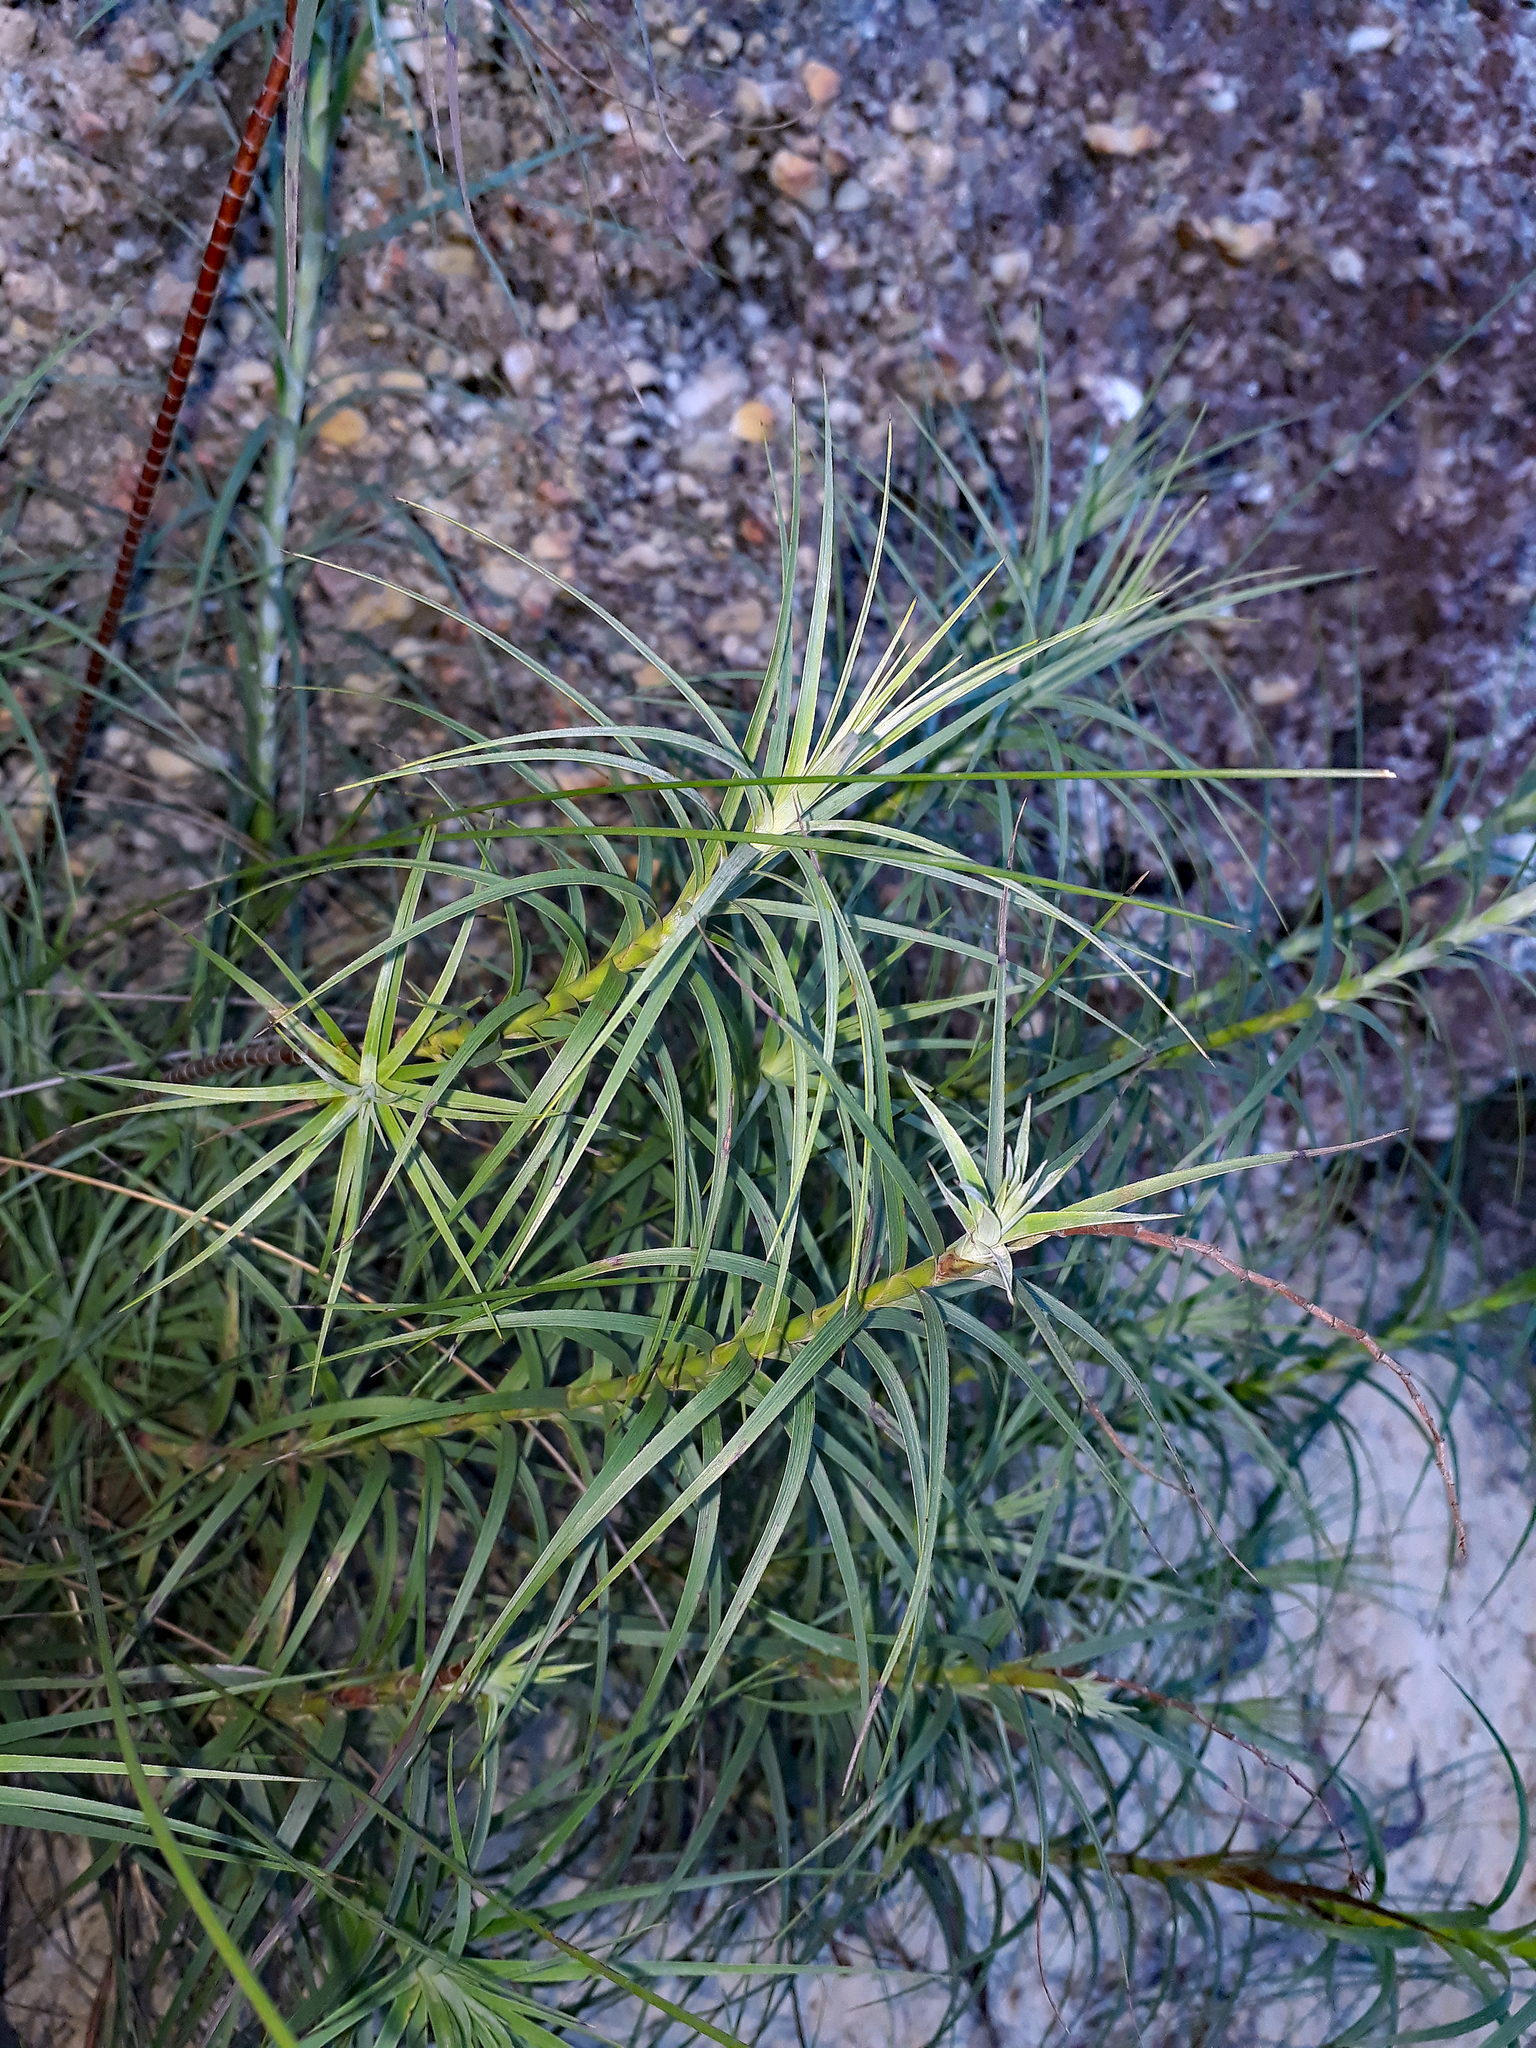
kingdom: Plantae
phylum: Tracheophyta
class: Magnoliopsida
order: Ericales
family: Ericaceae
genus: Dracophyllum
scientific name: Dracophyllum secundum
